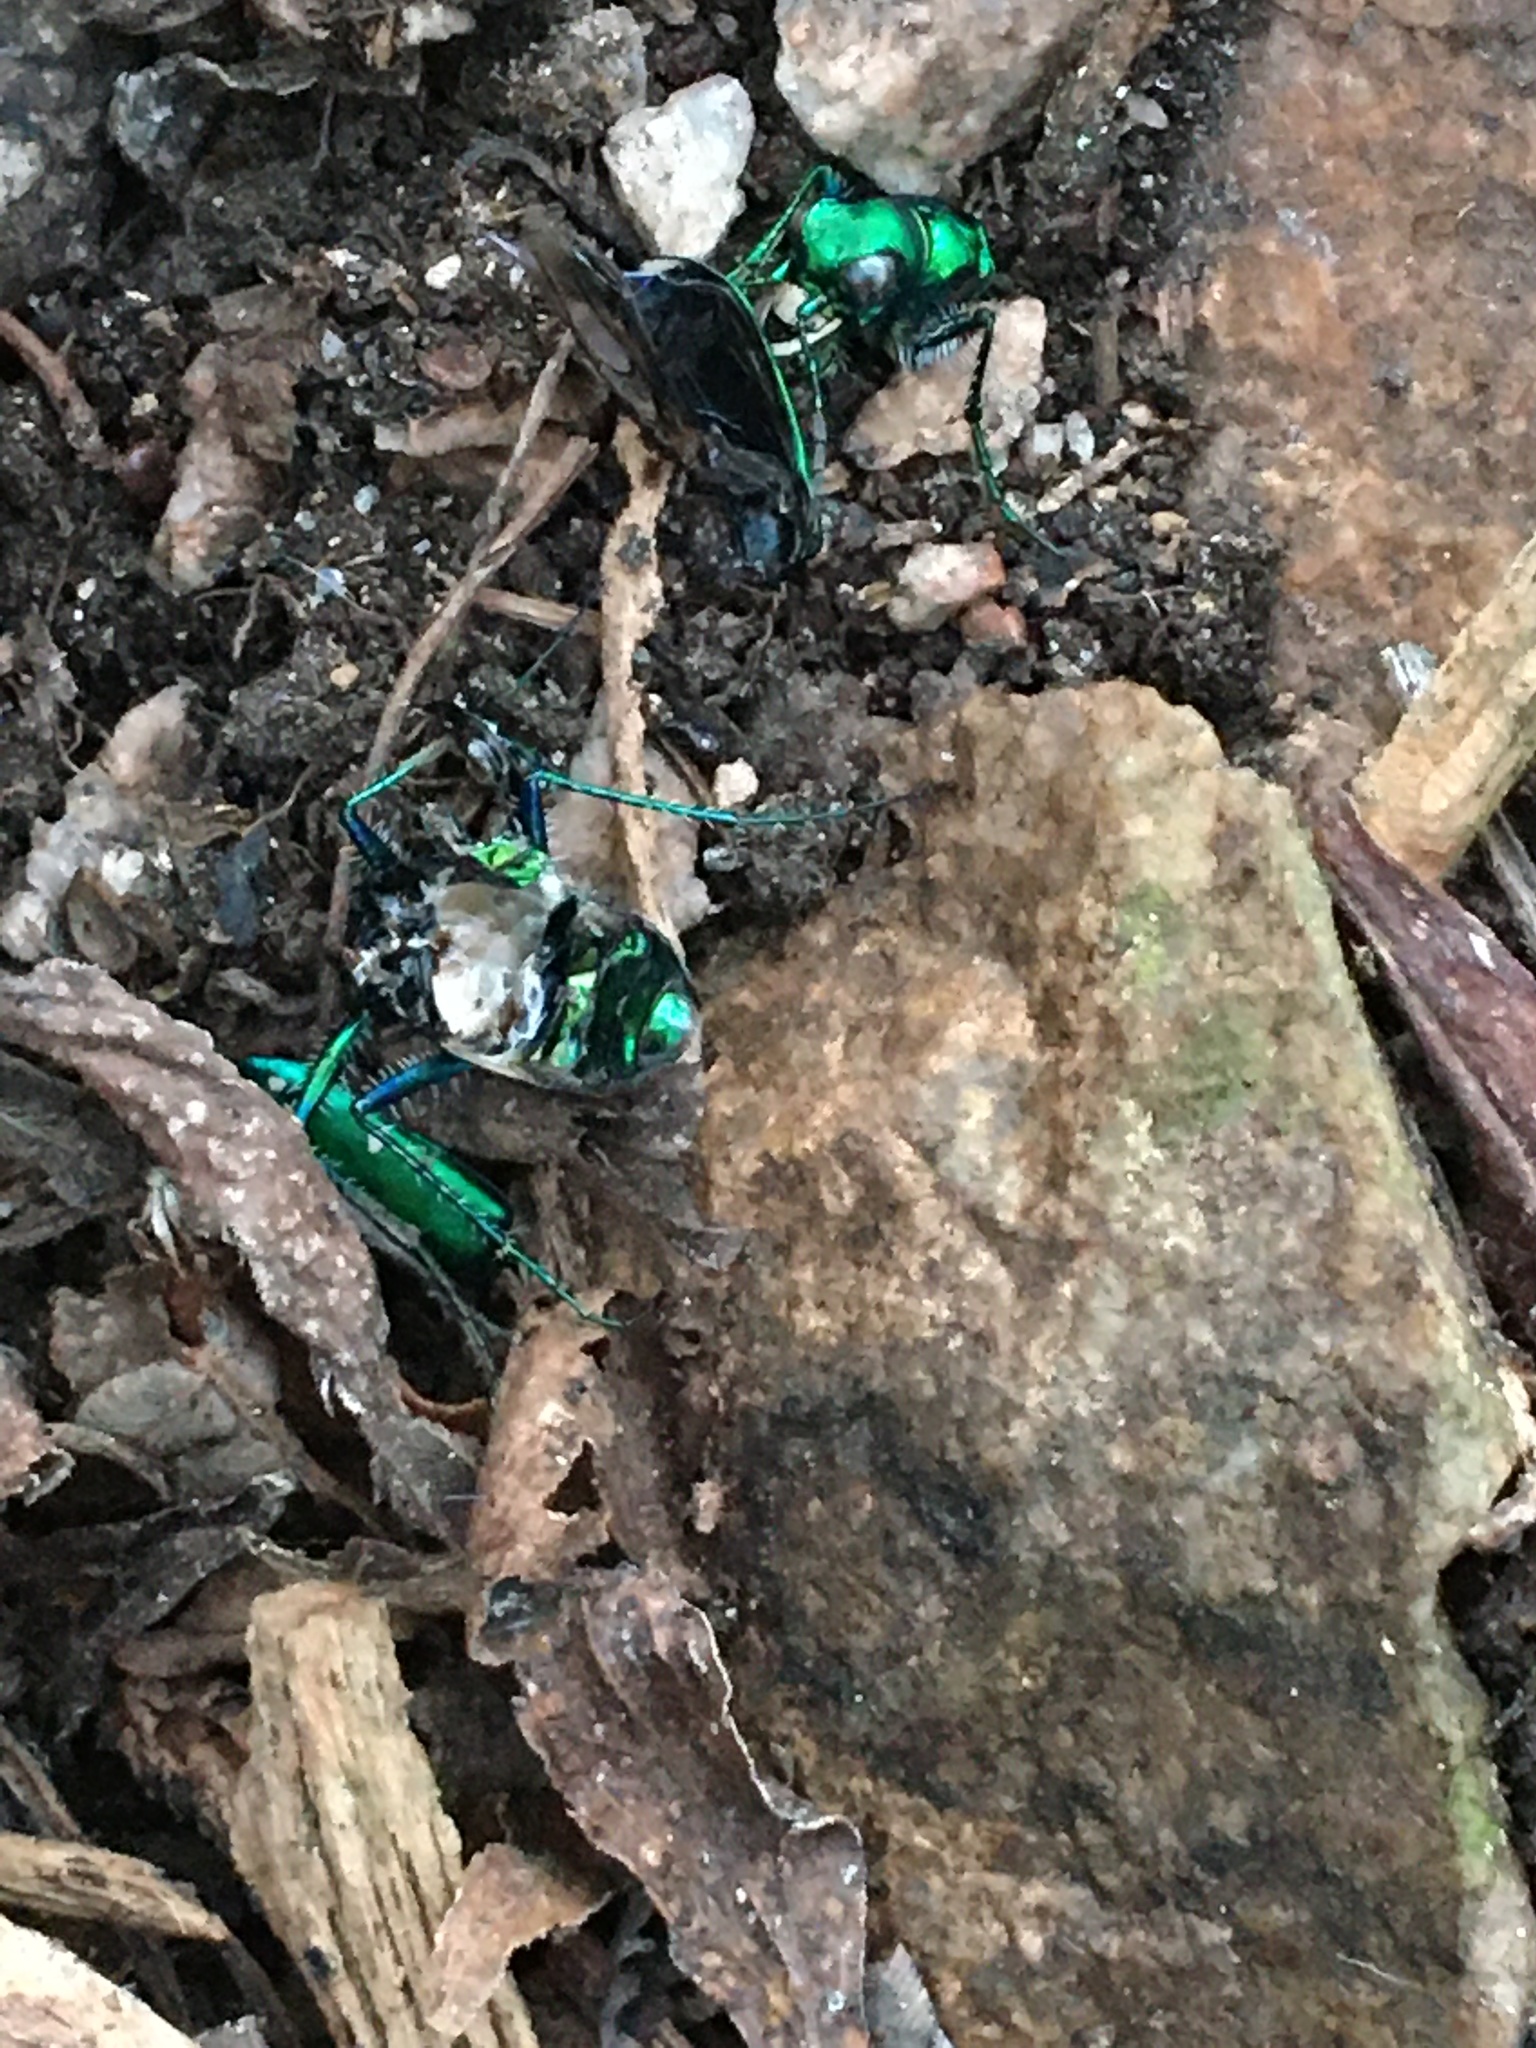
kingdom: Animalia
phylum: Arthropoda
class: Insecta
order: Coleoptera
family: Carabidae
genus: Cicindela
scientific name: Cicindela sexguttata
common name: Six-spotted tiger beetle
